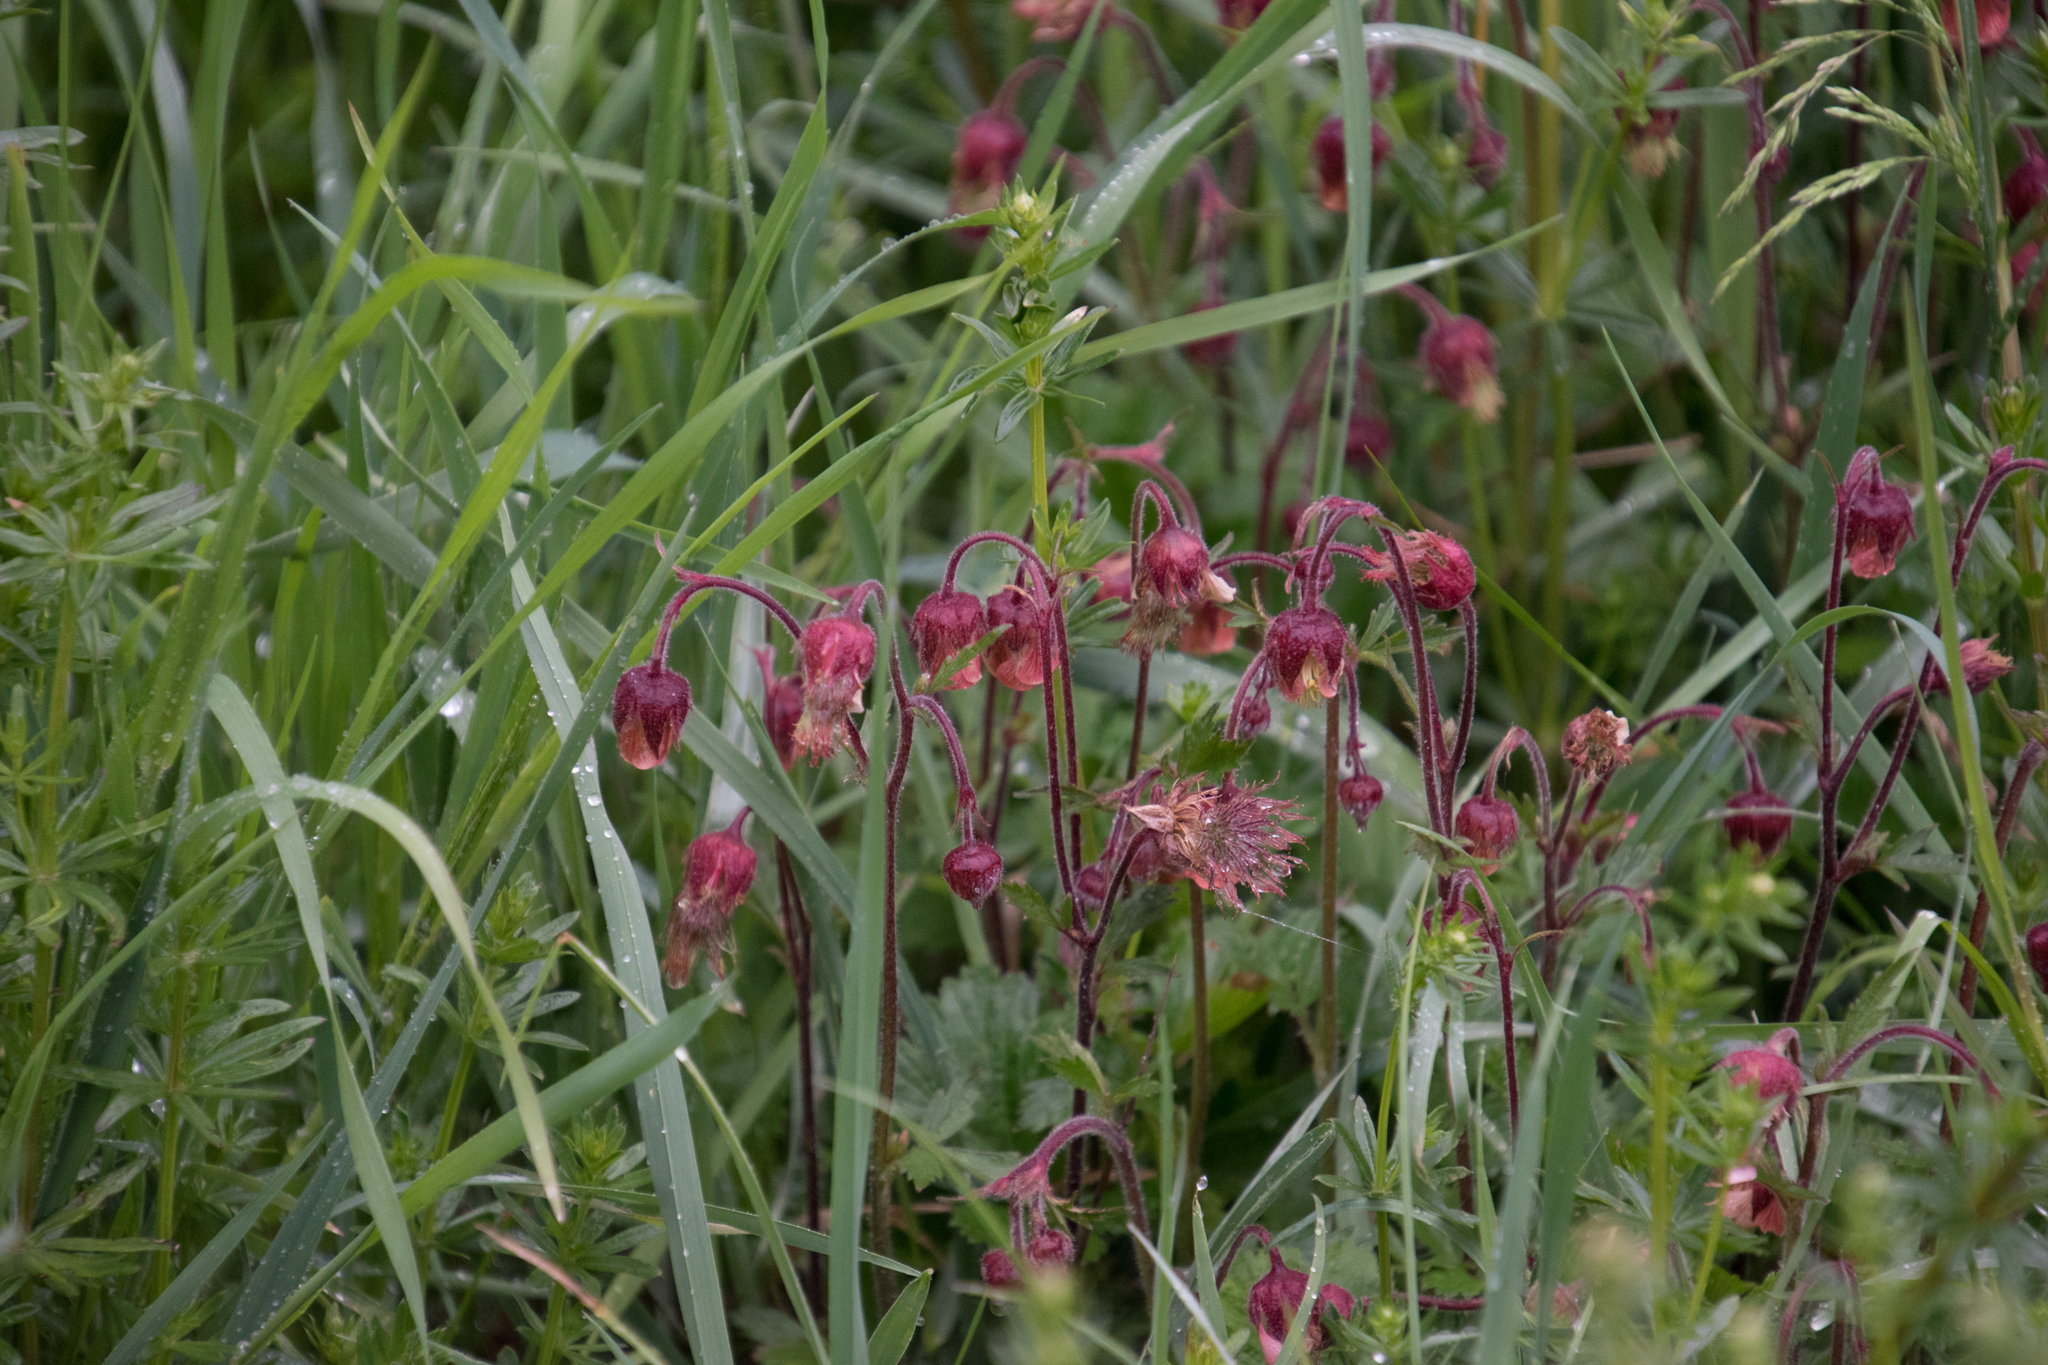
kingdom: Plantae
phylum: Tracheophyta
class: Magnoliopsida
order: Rosales
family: Rosaceae
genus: Geum
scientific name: Geum rivale
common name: Water avens
